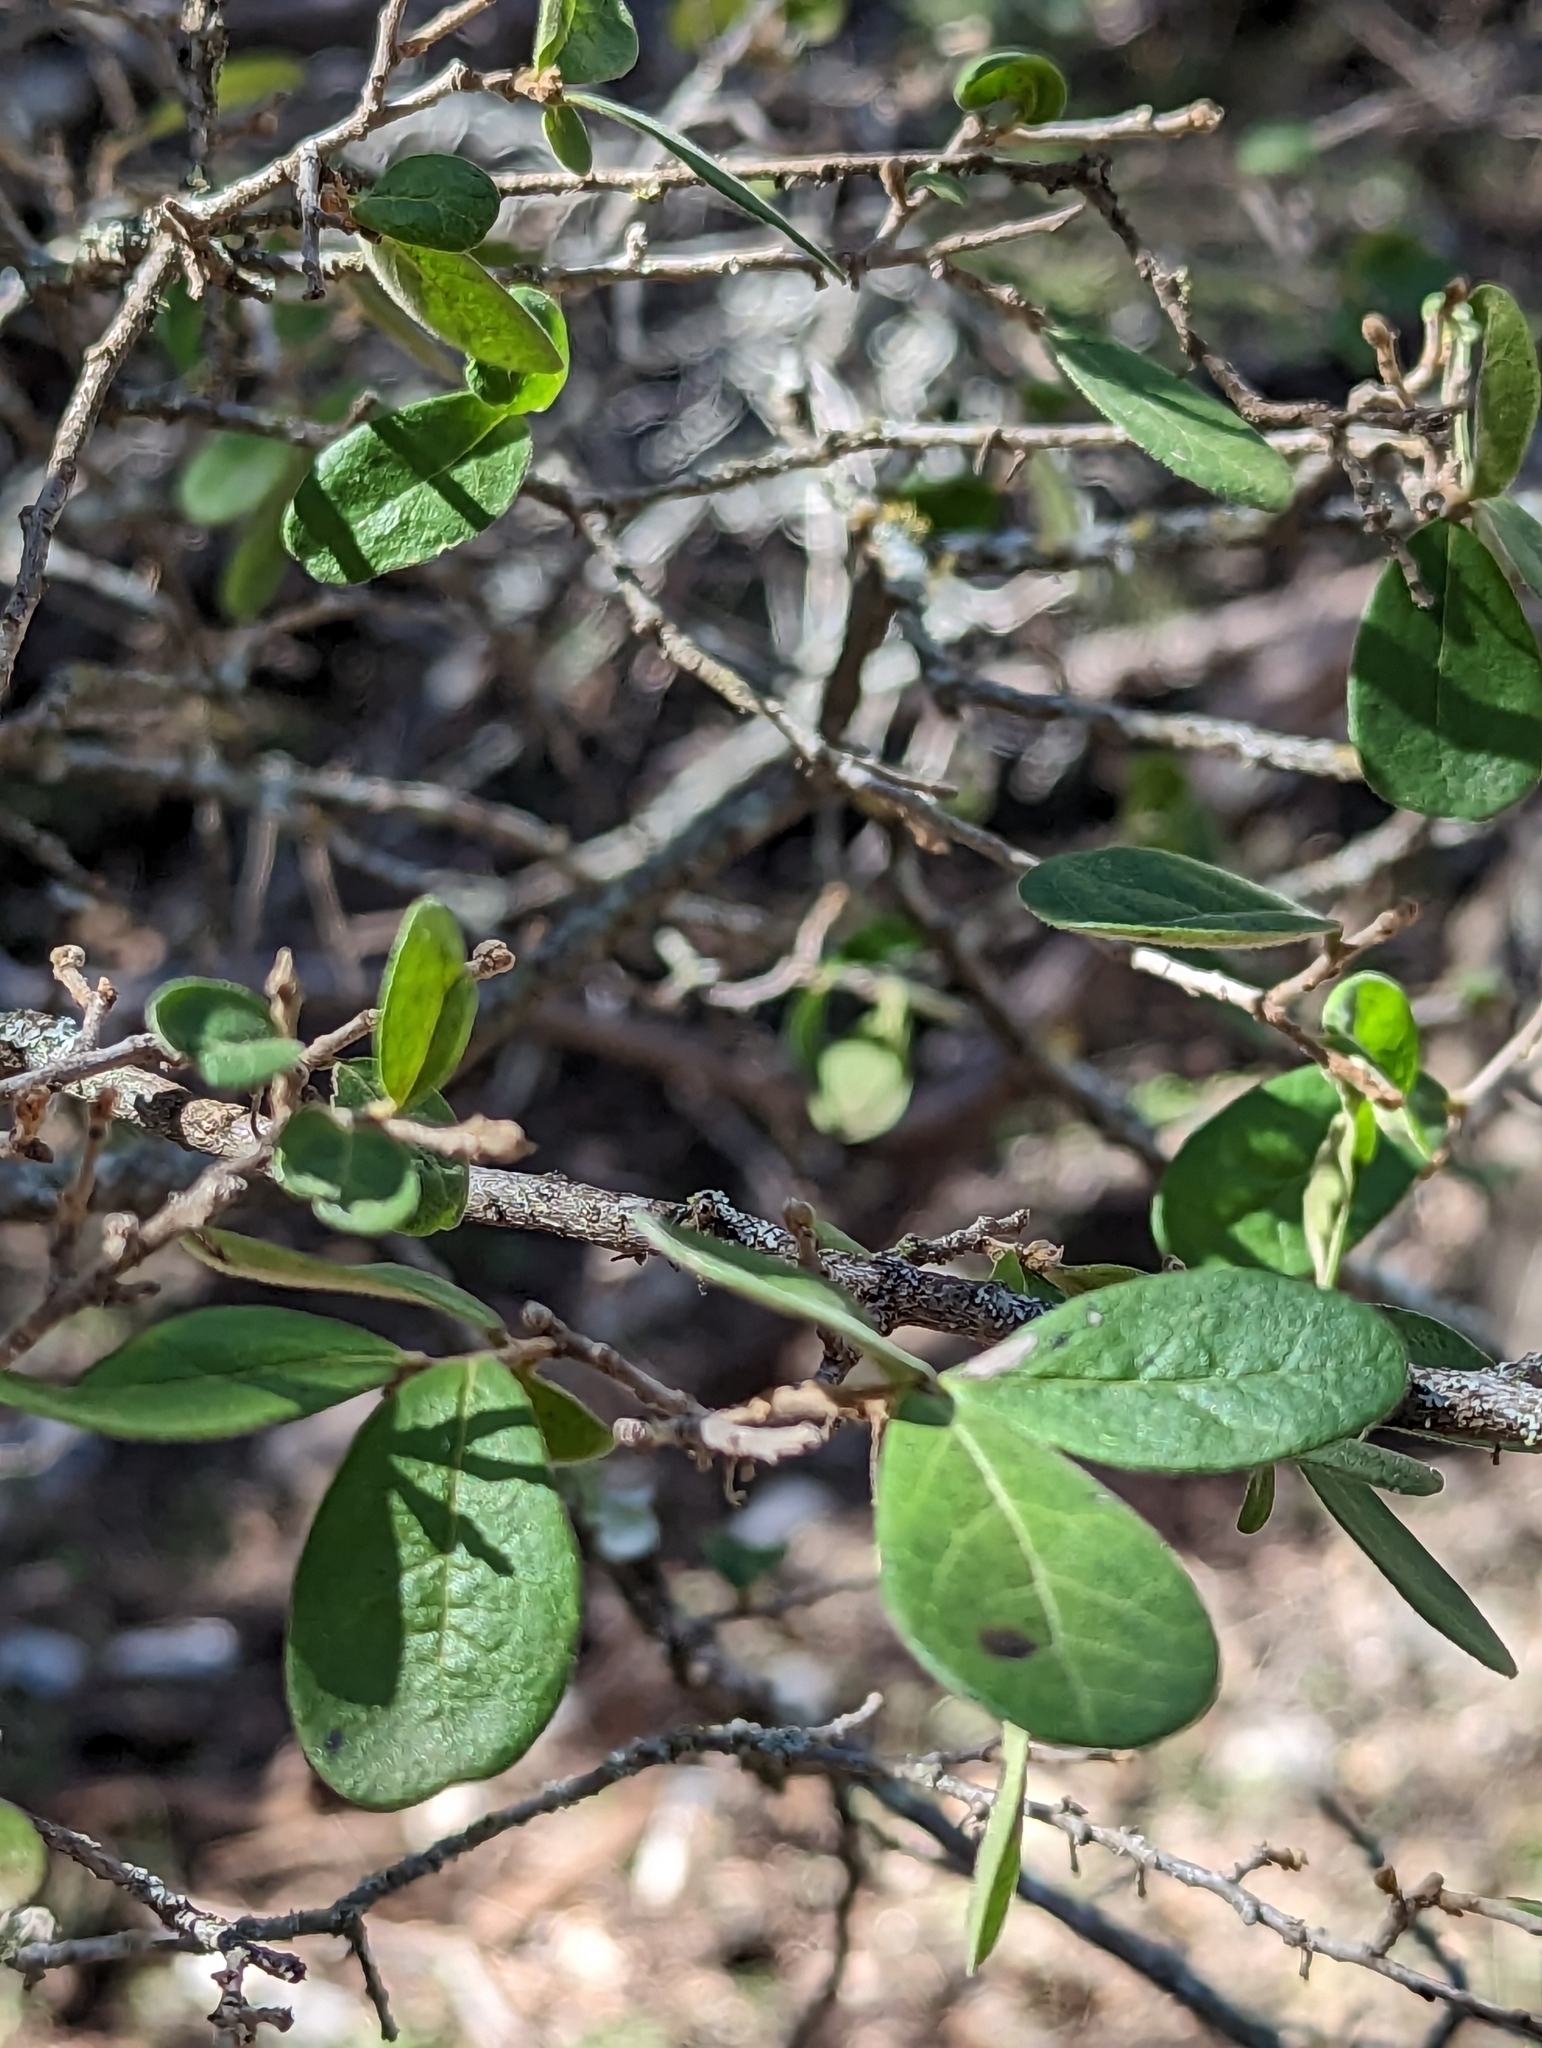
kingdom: Plantae
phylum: Tracheophyta
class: Magnoliopsida
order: Ericales
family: Ebenaceae
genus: Diospyros
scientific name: Diospyros texana
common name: Texas persimmon
